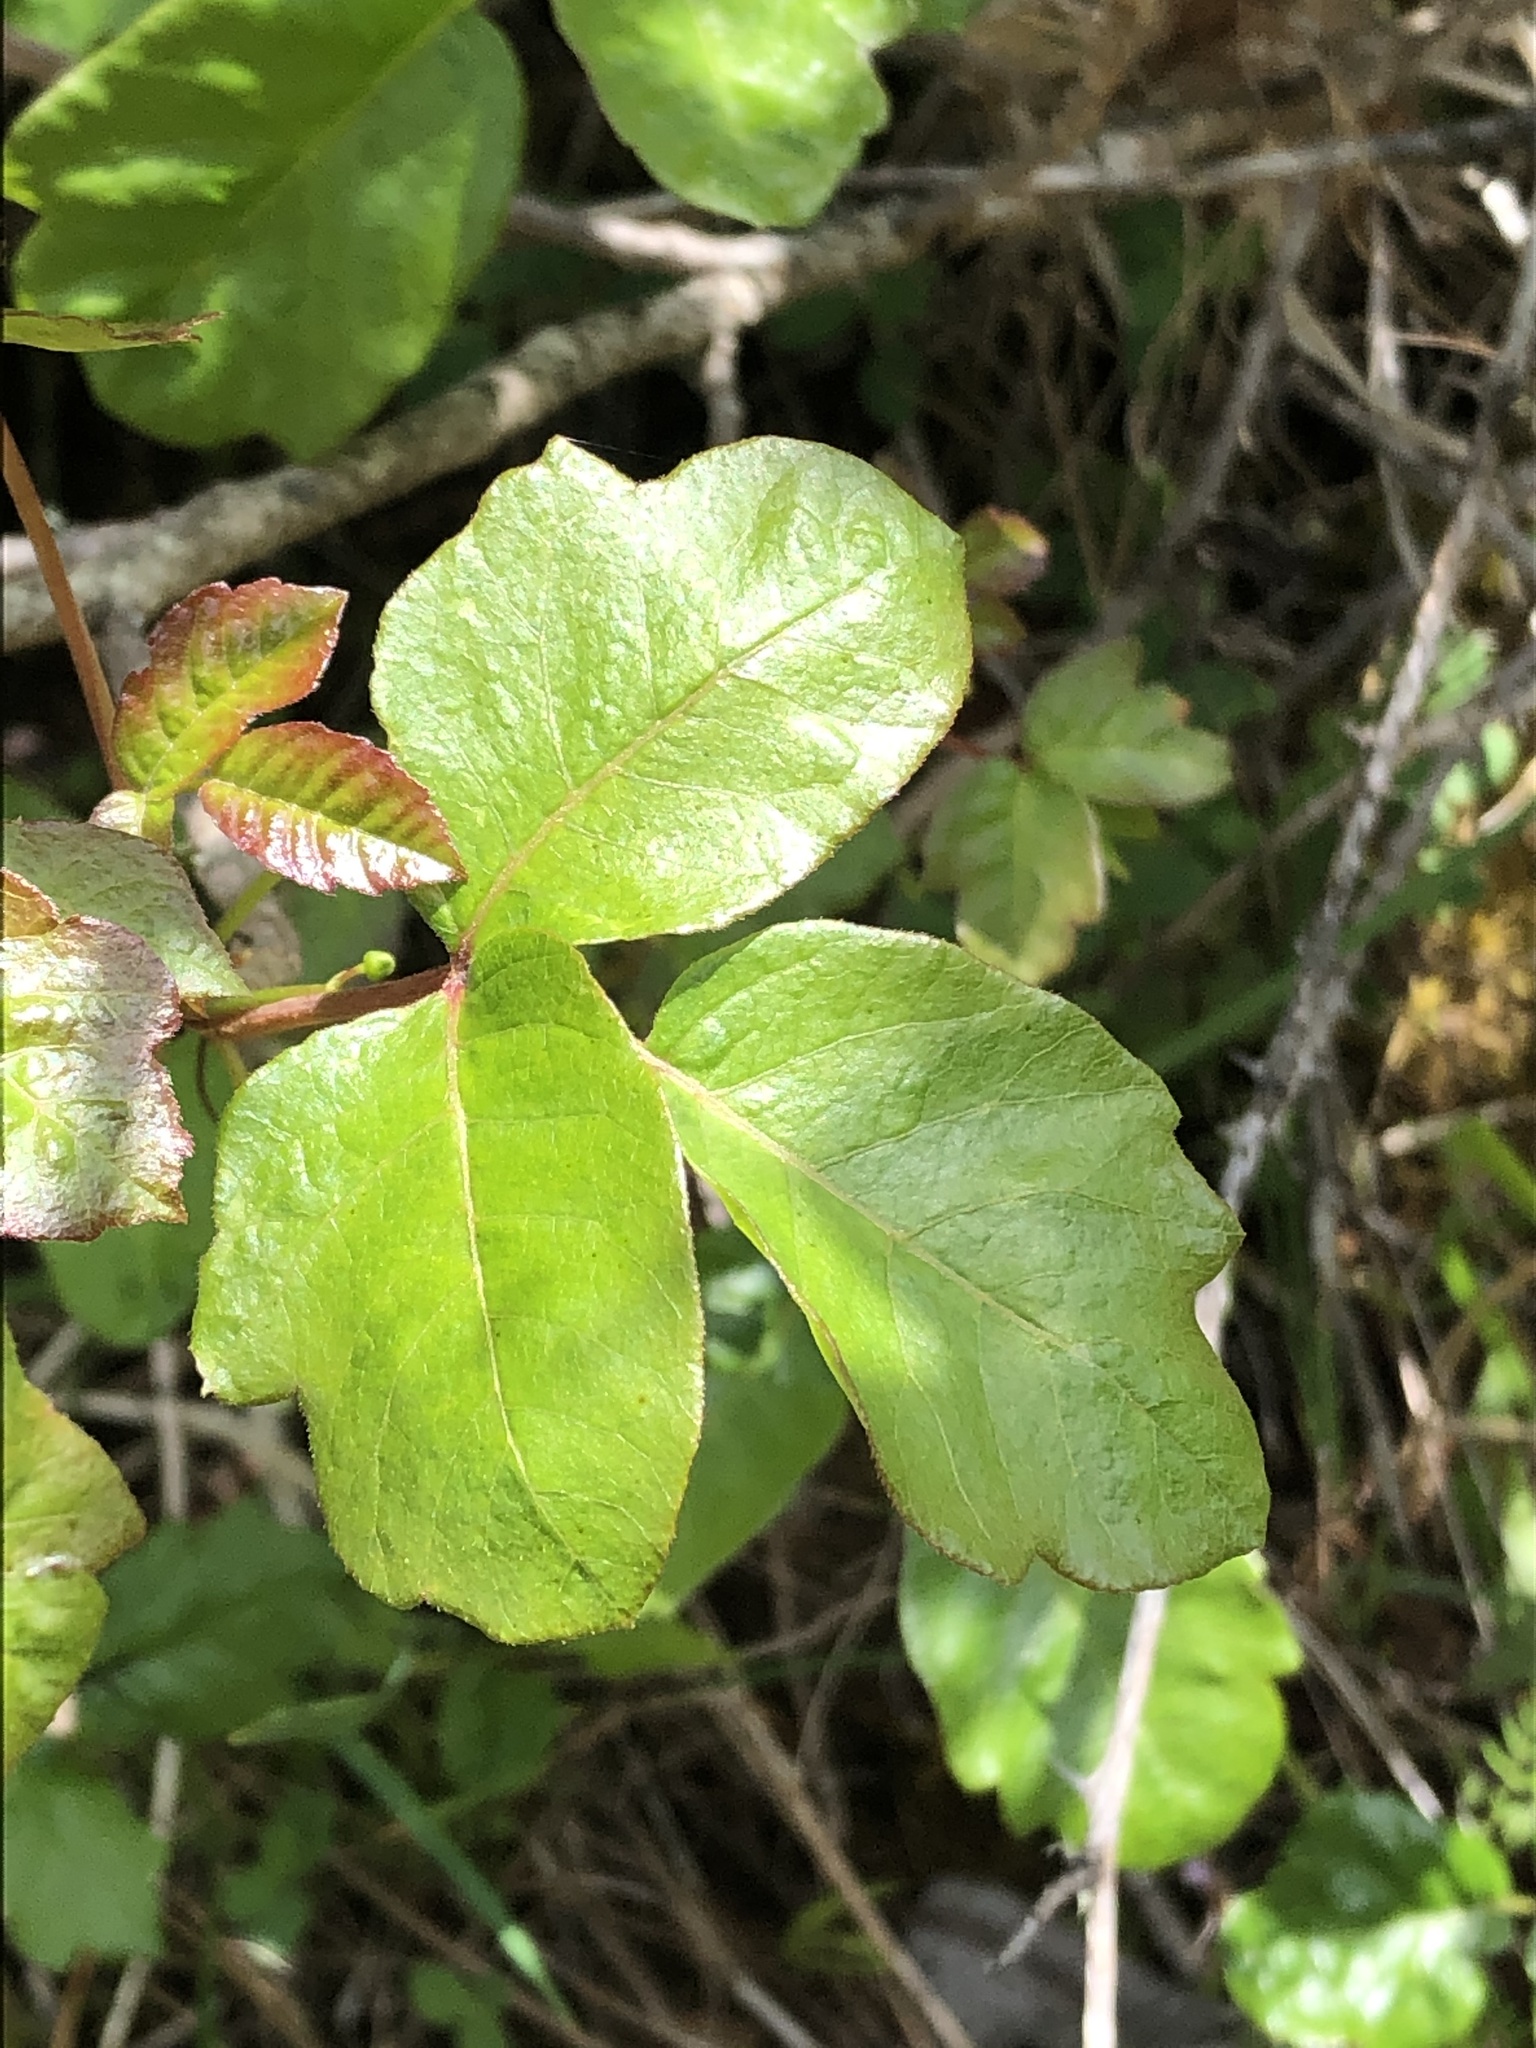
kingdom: Plantae
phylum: Tracheophyta
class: Magnoliopsida
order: Sapindales
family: Anacardiaceae
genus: Toxicodendron
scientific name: Toxicodendron diversilobum
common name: Pacific poison-oak
